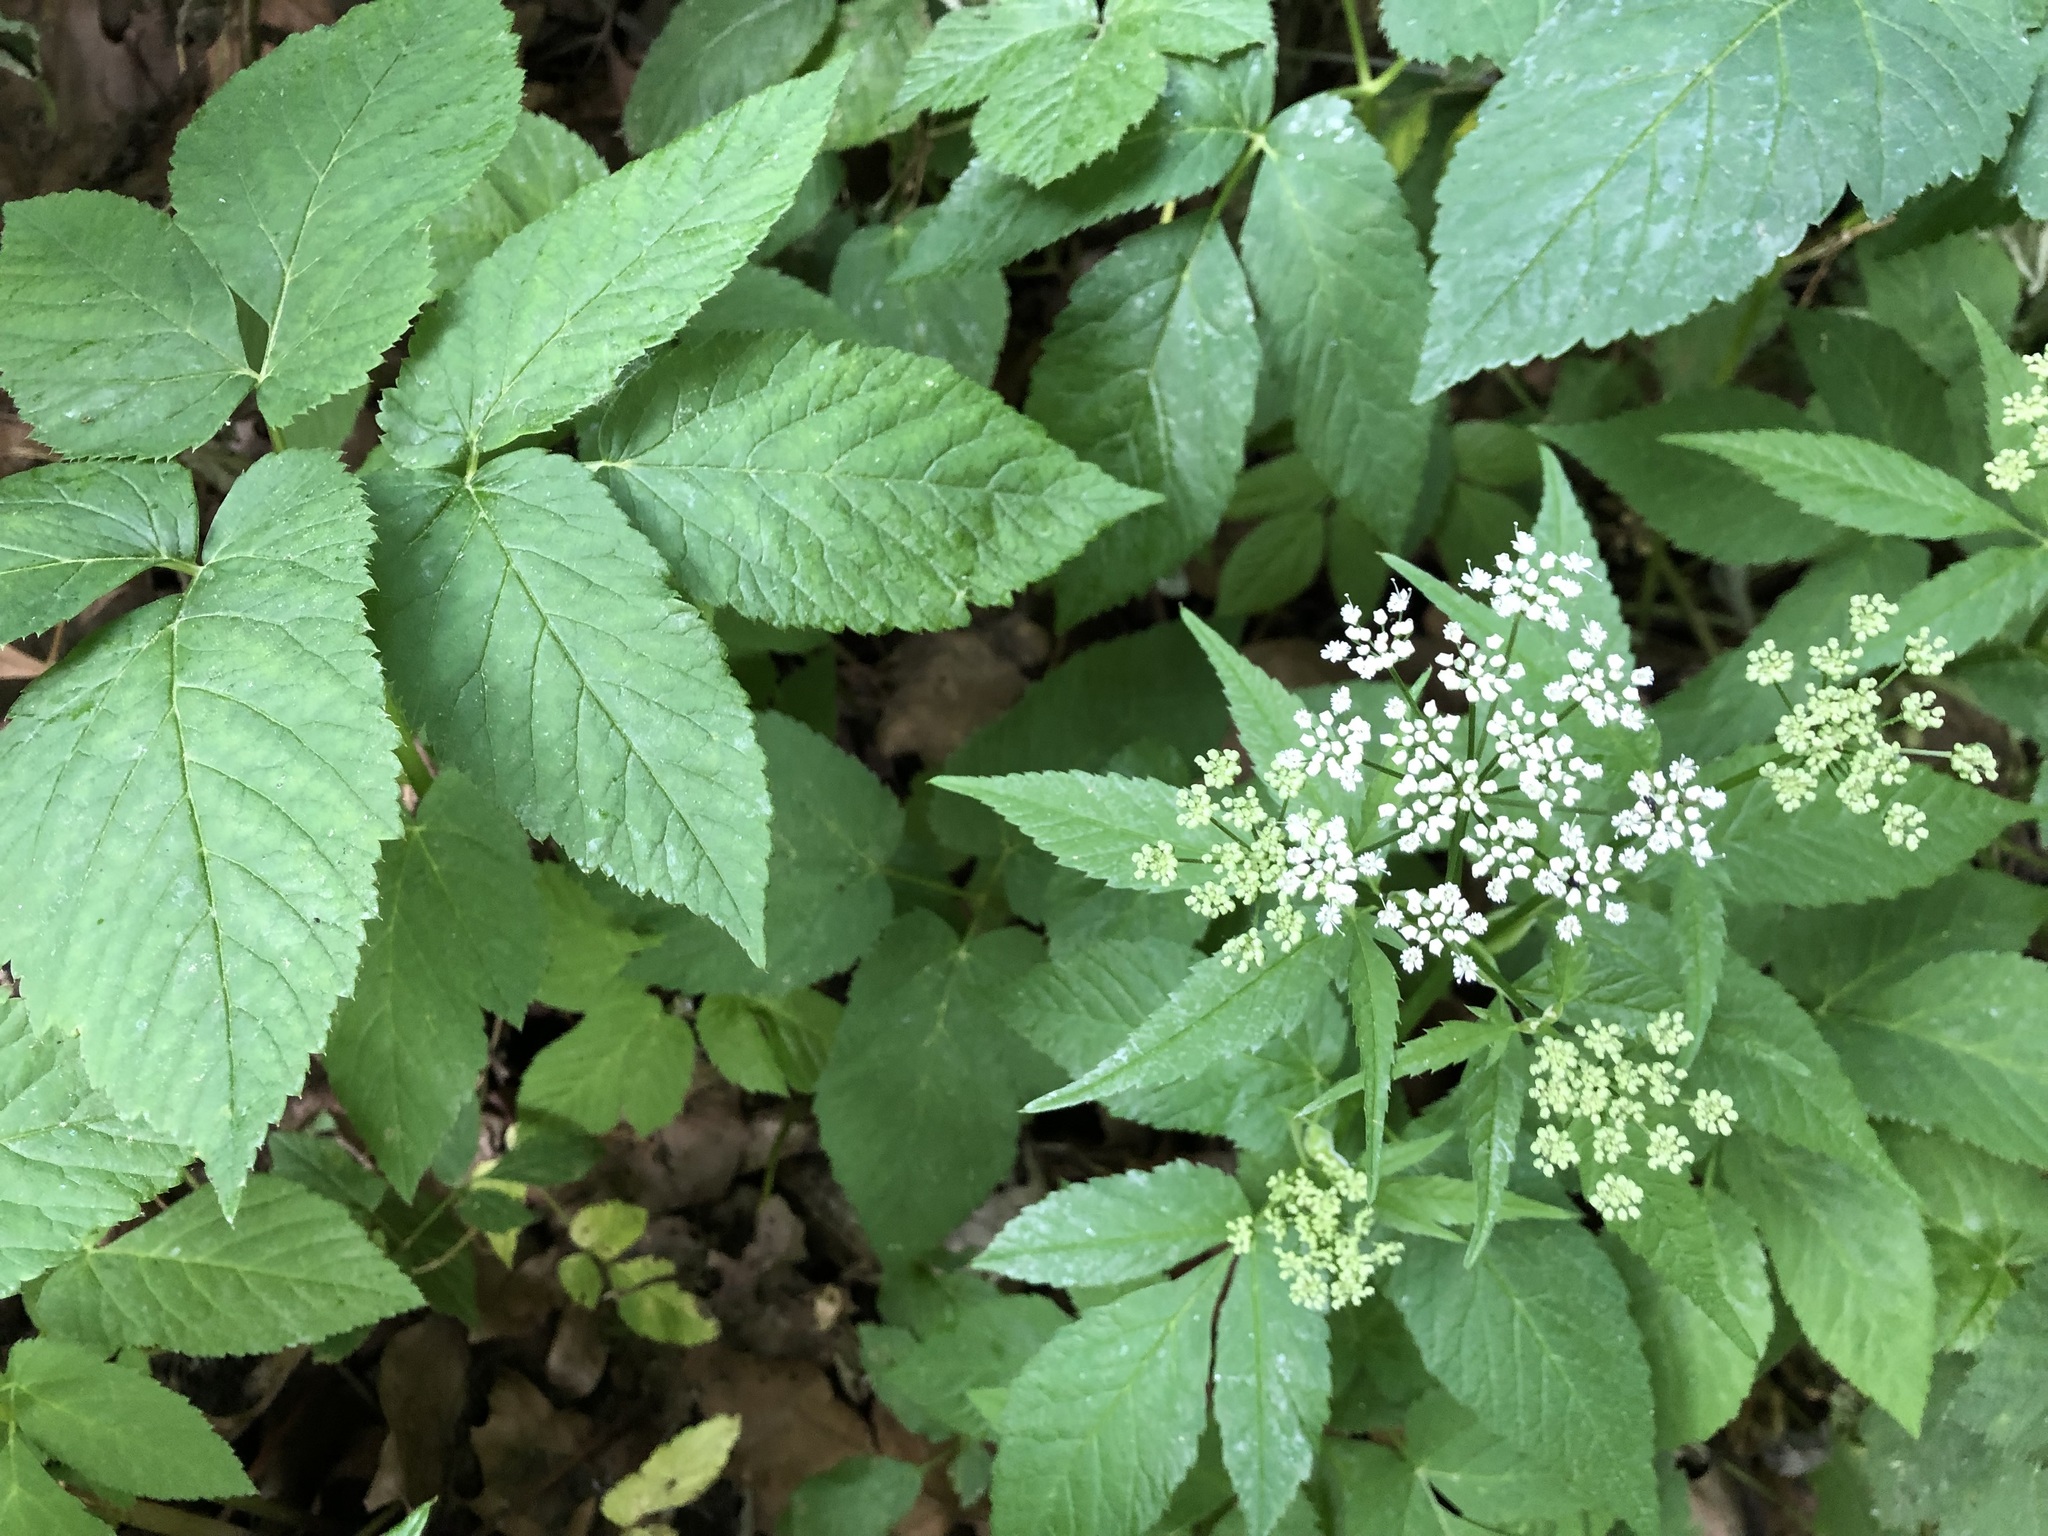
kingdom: Plantae
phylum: Tracheophyta
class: Magnoliopsida
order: Apiales
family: Apiaceae
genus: Aegopodium
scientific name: Aegopodium podagraria
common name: Ground-elder
